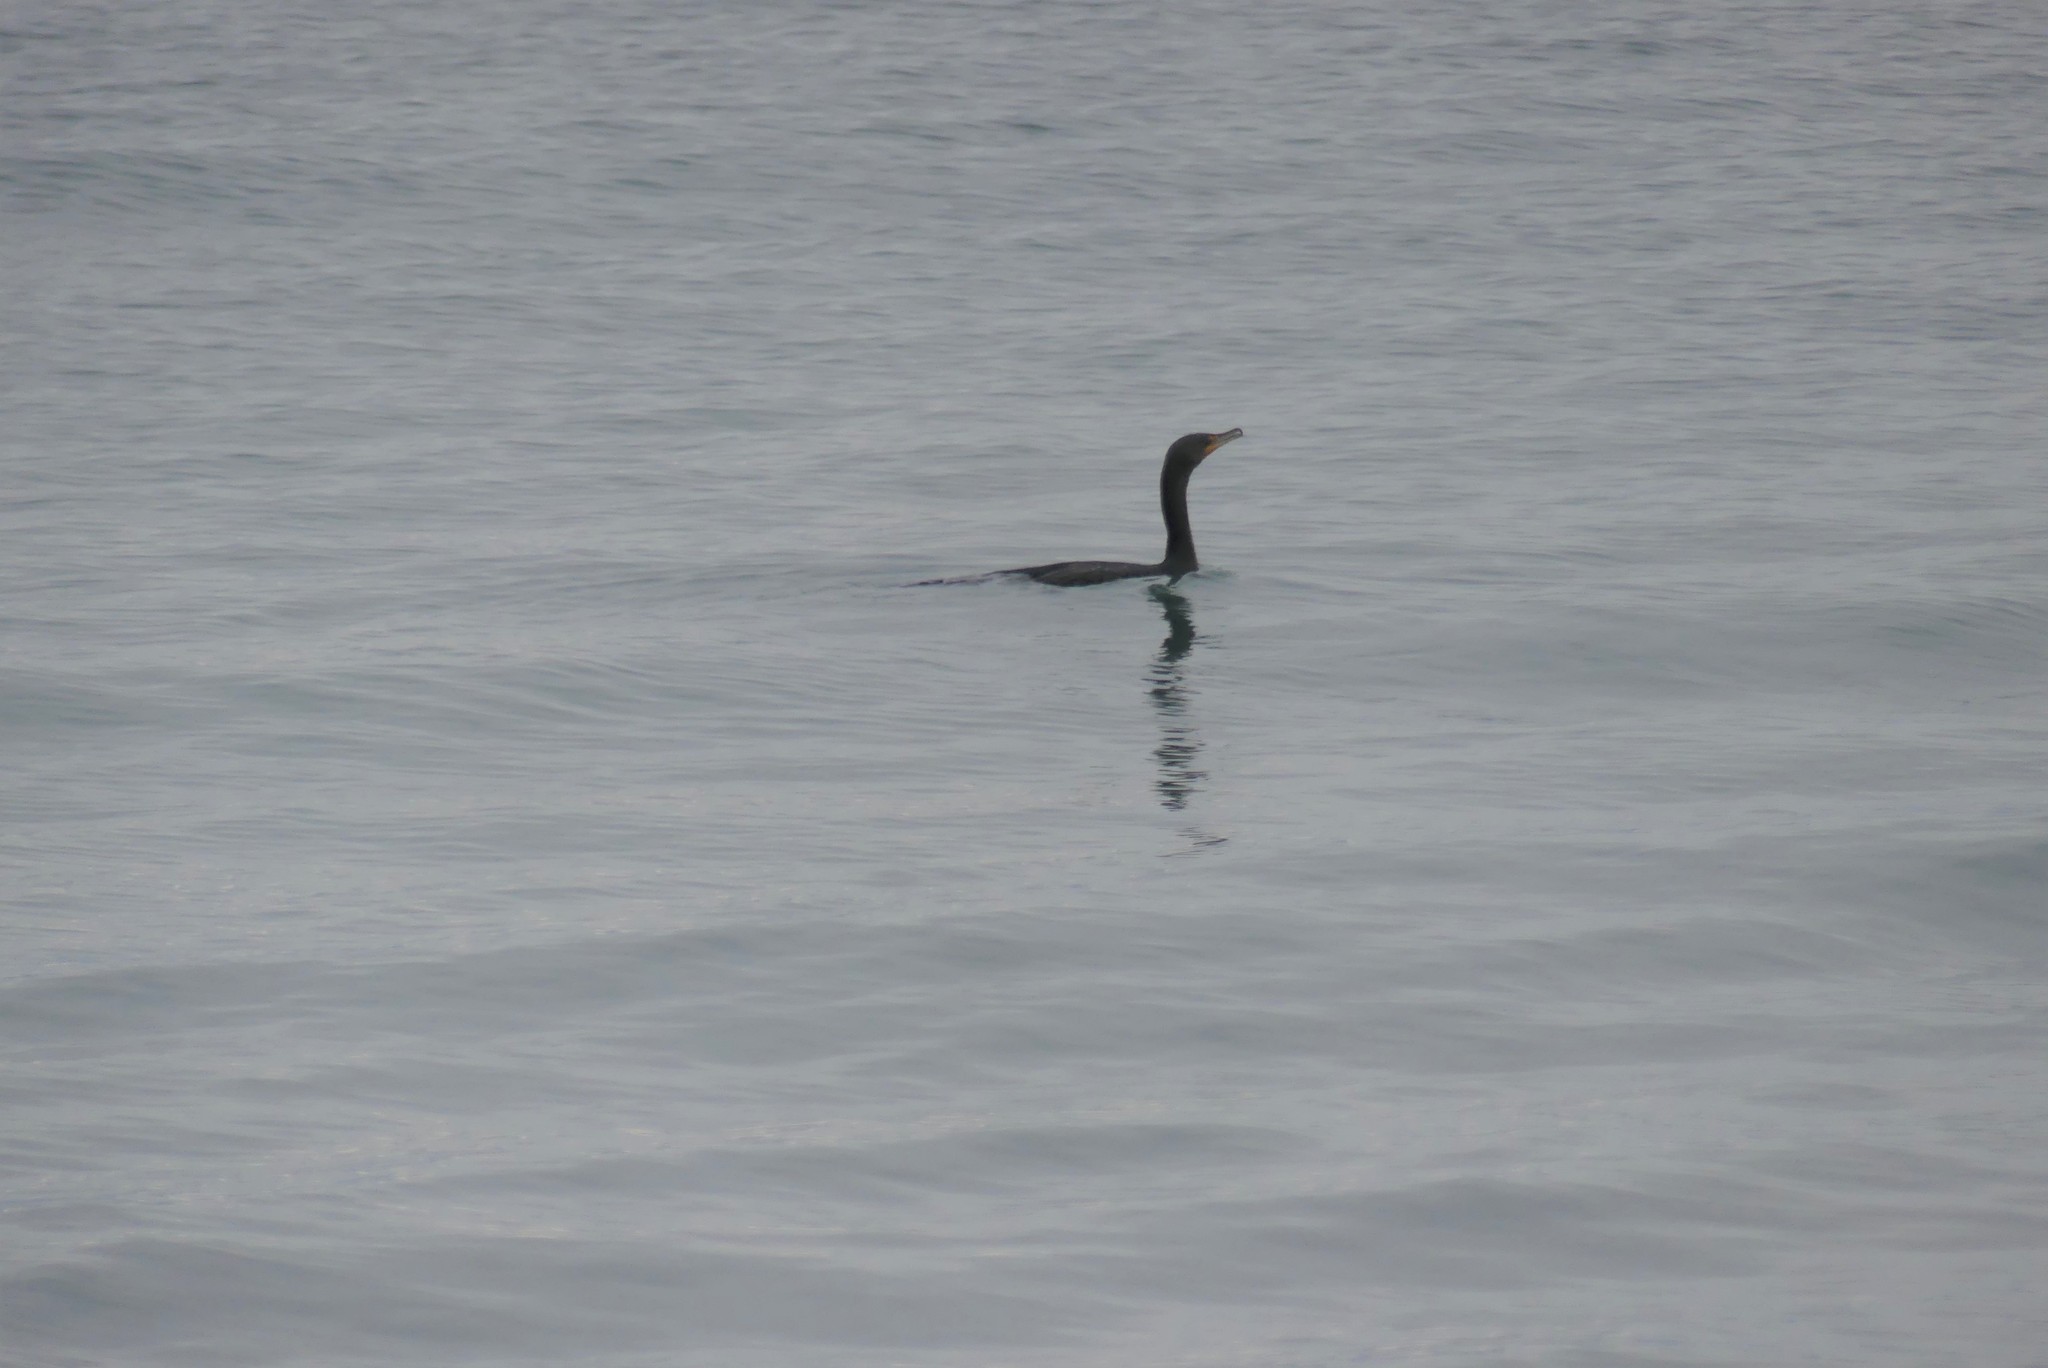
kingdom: Animalia
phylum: Chordata
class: Aves
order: Suliformes
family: Phalacrocoracidae
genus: Phalacrocorax
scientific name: Phalacrocorax auritus
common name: Double-crested cormorant
